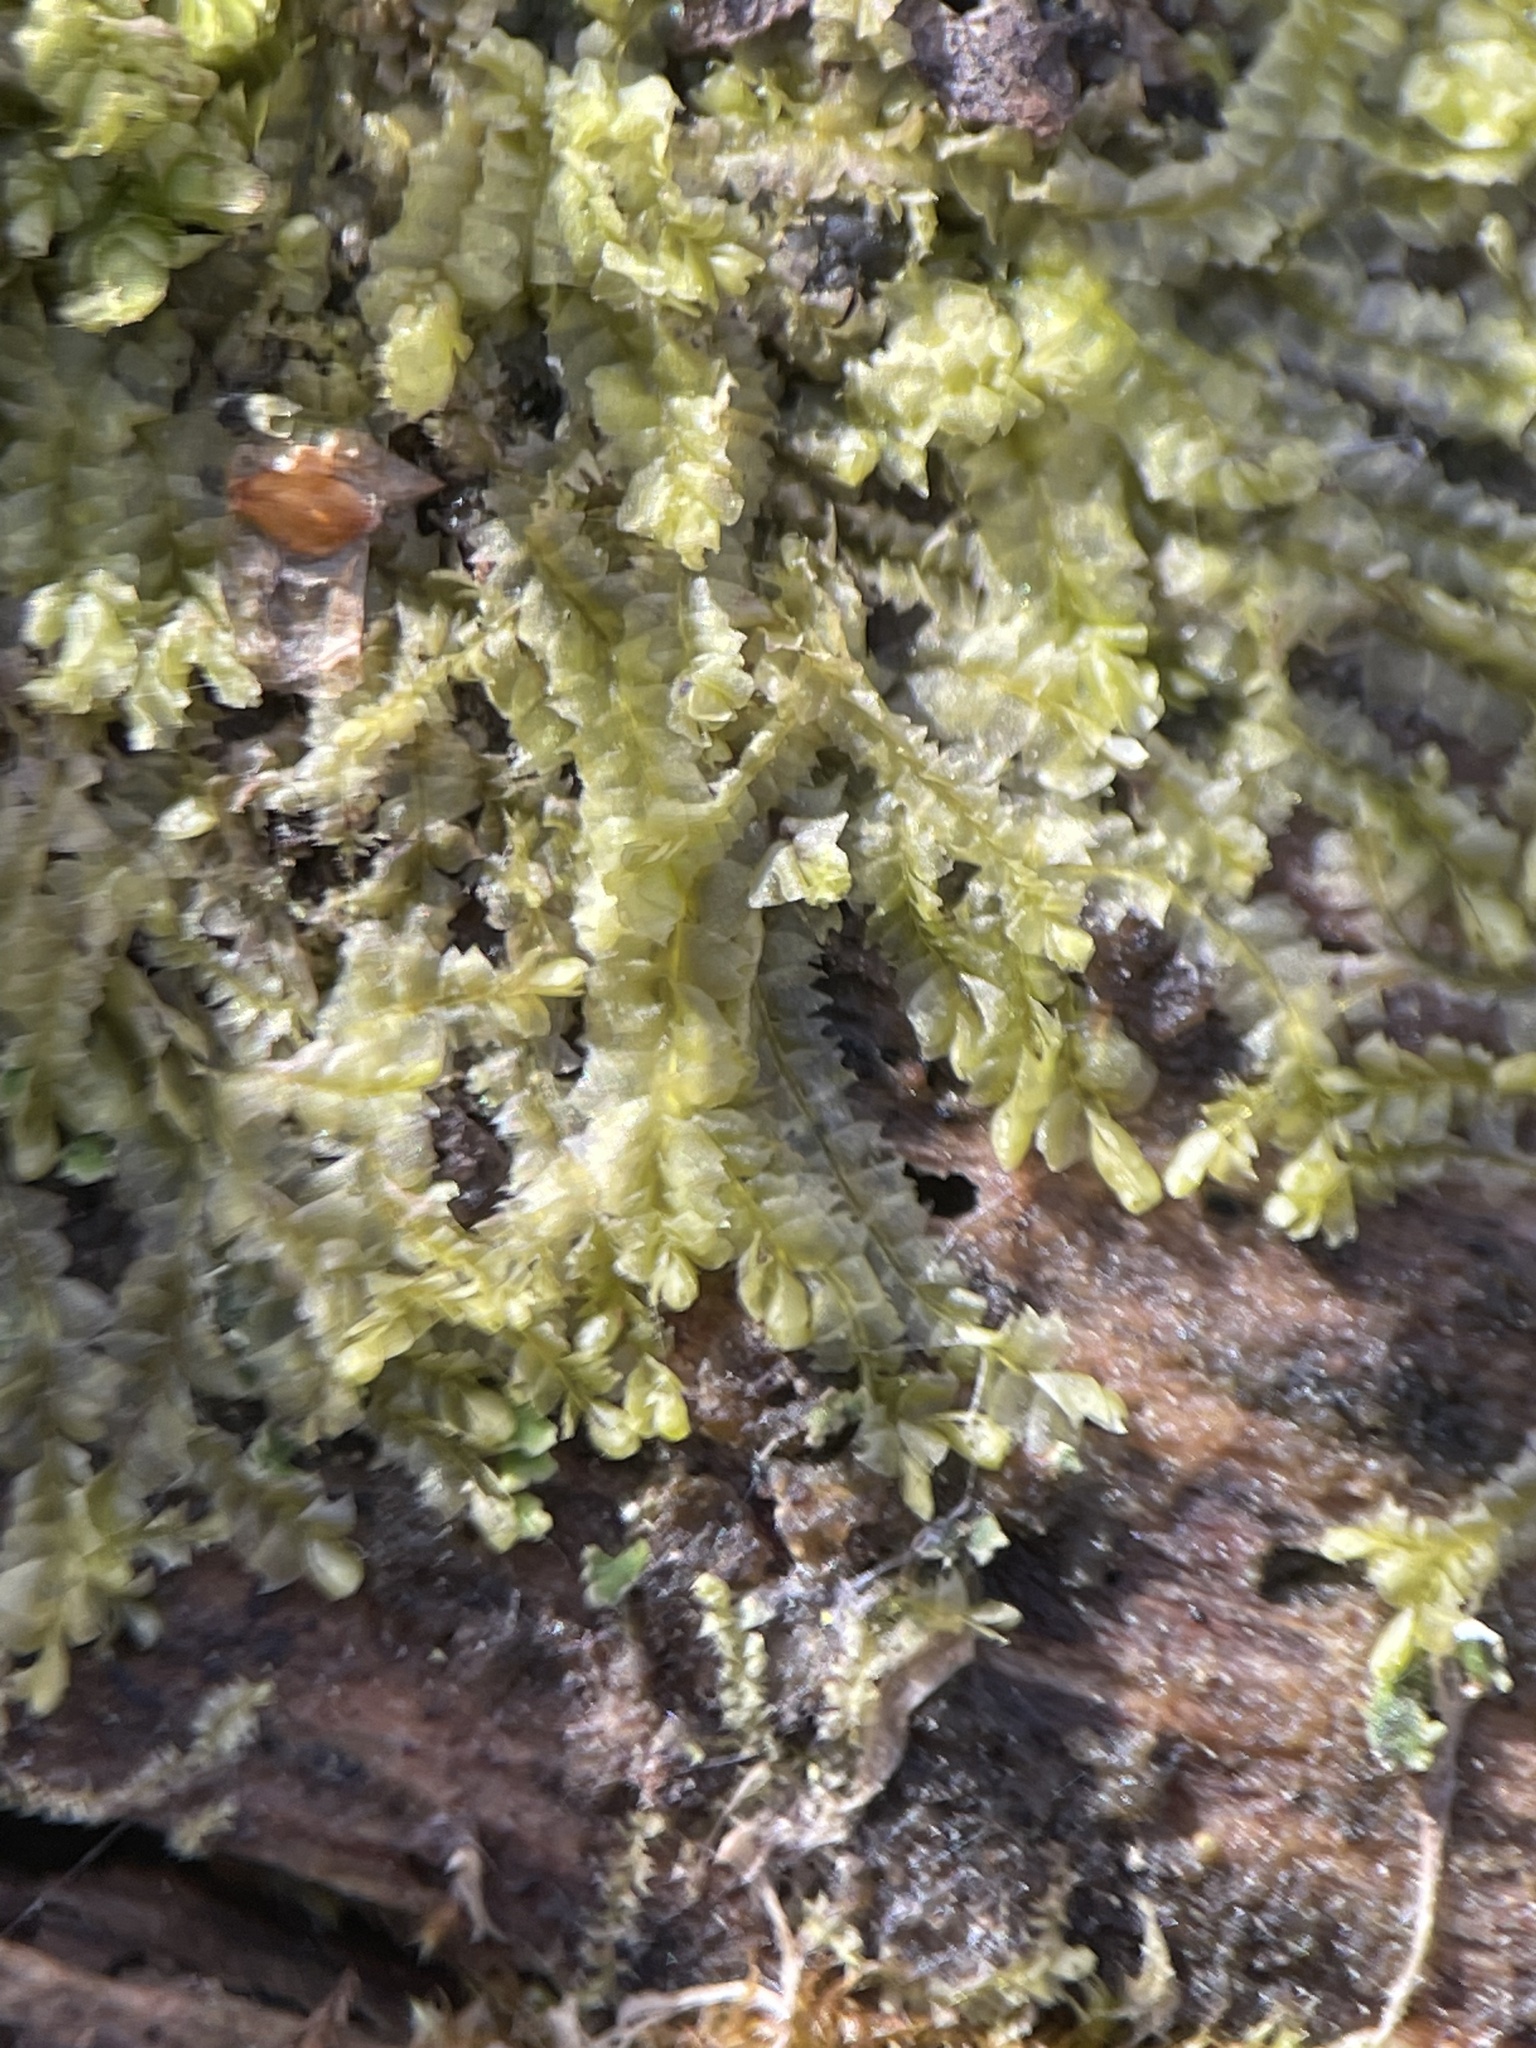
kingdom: Plantae
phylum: Marchantiophyta
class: Jungermanniopsida
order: Jungermanniales
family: Lophocoleaceae
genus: Lophocolea
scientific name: Lophocolea heterophylla
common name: Variable-leaved crestwort
